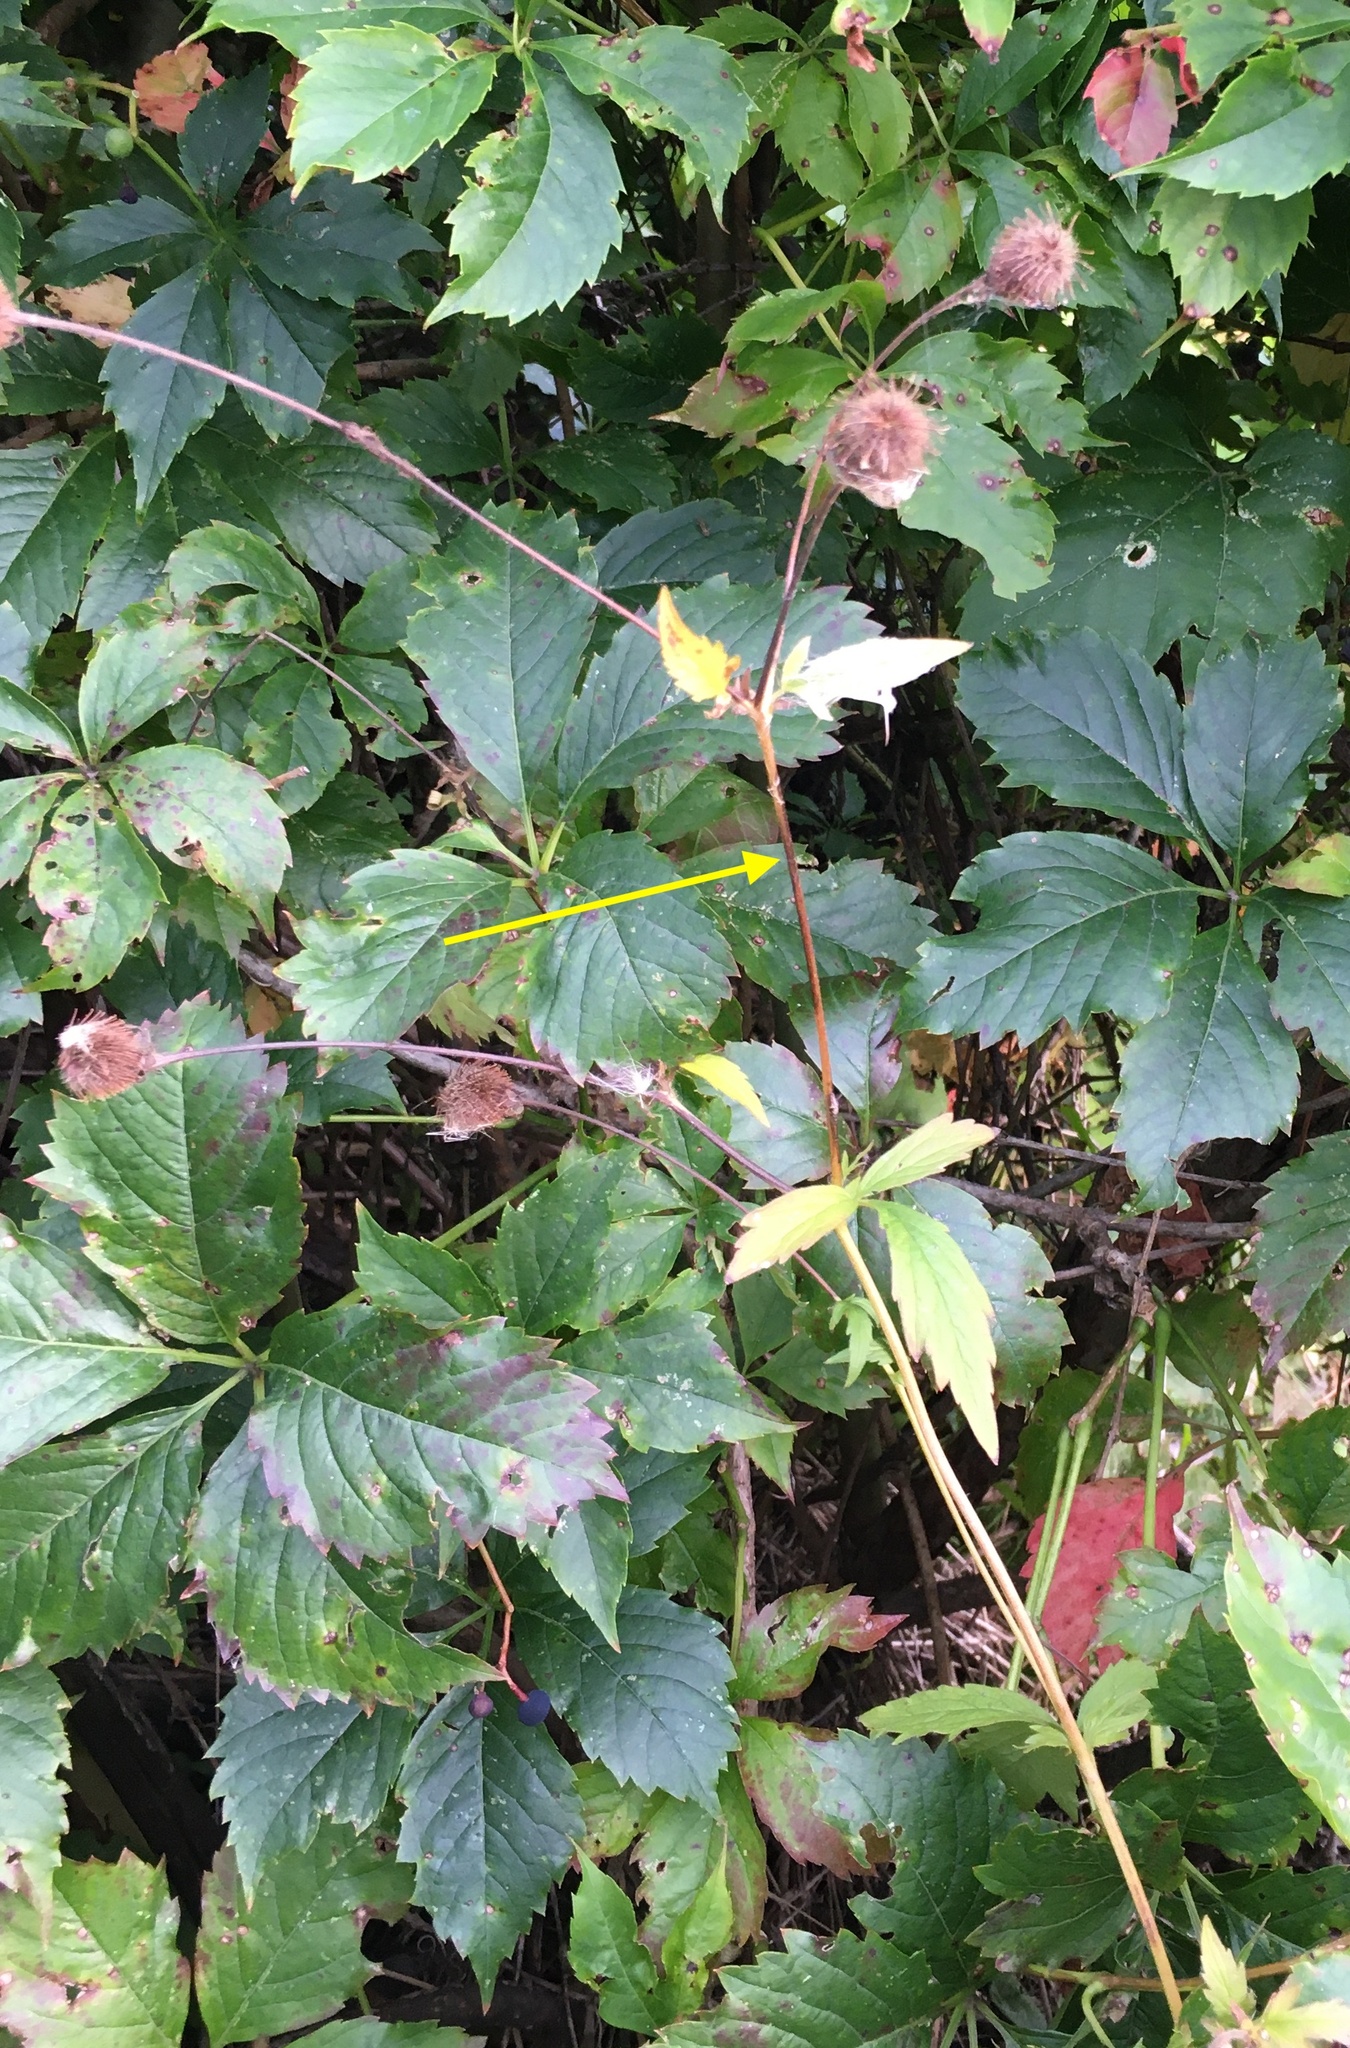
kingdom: Plantae
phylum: Tracheophyta
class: Magnoliopsida
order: Rosales
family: Rosaceae
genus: Geum
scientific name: Geum aleppicum
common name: Yellow avens
